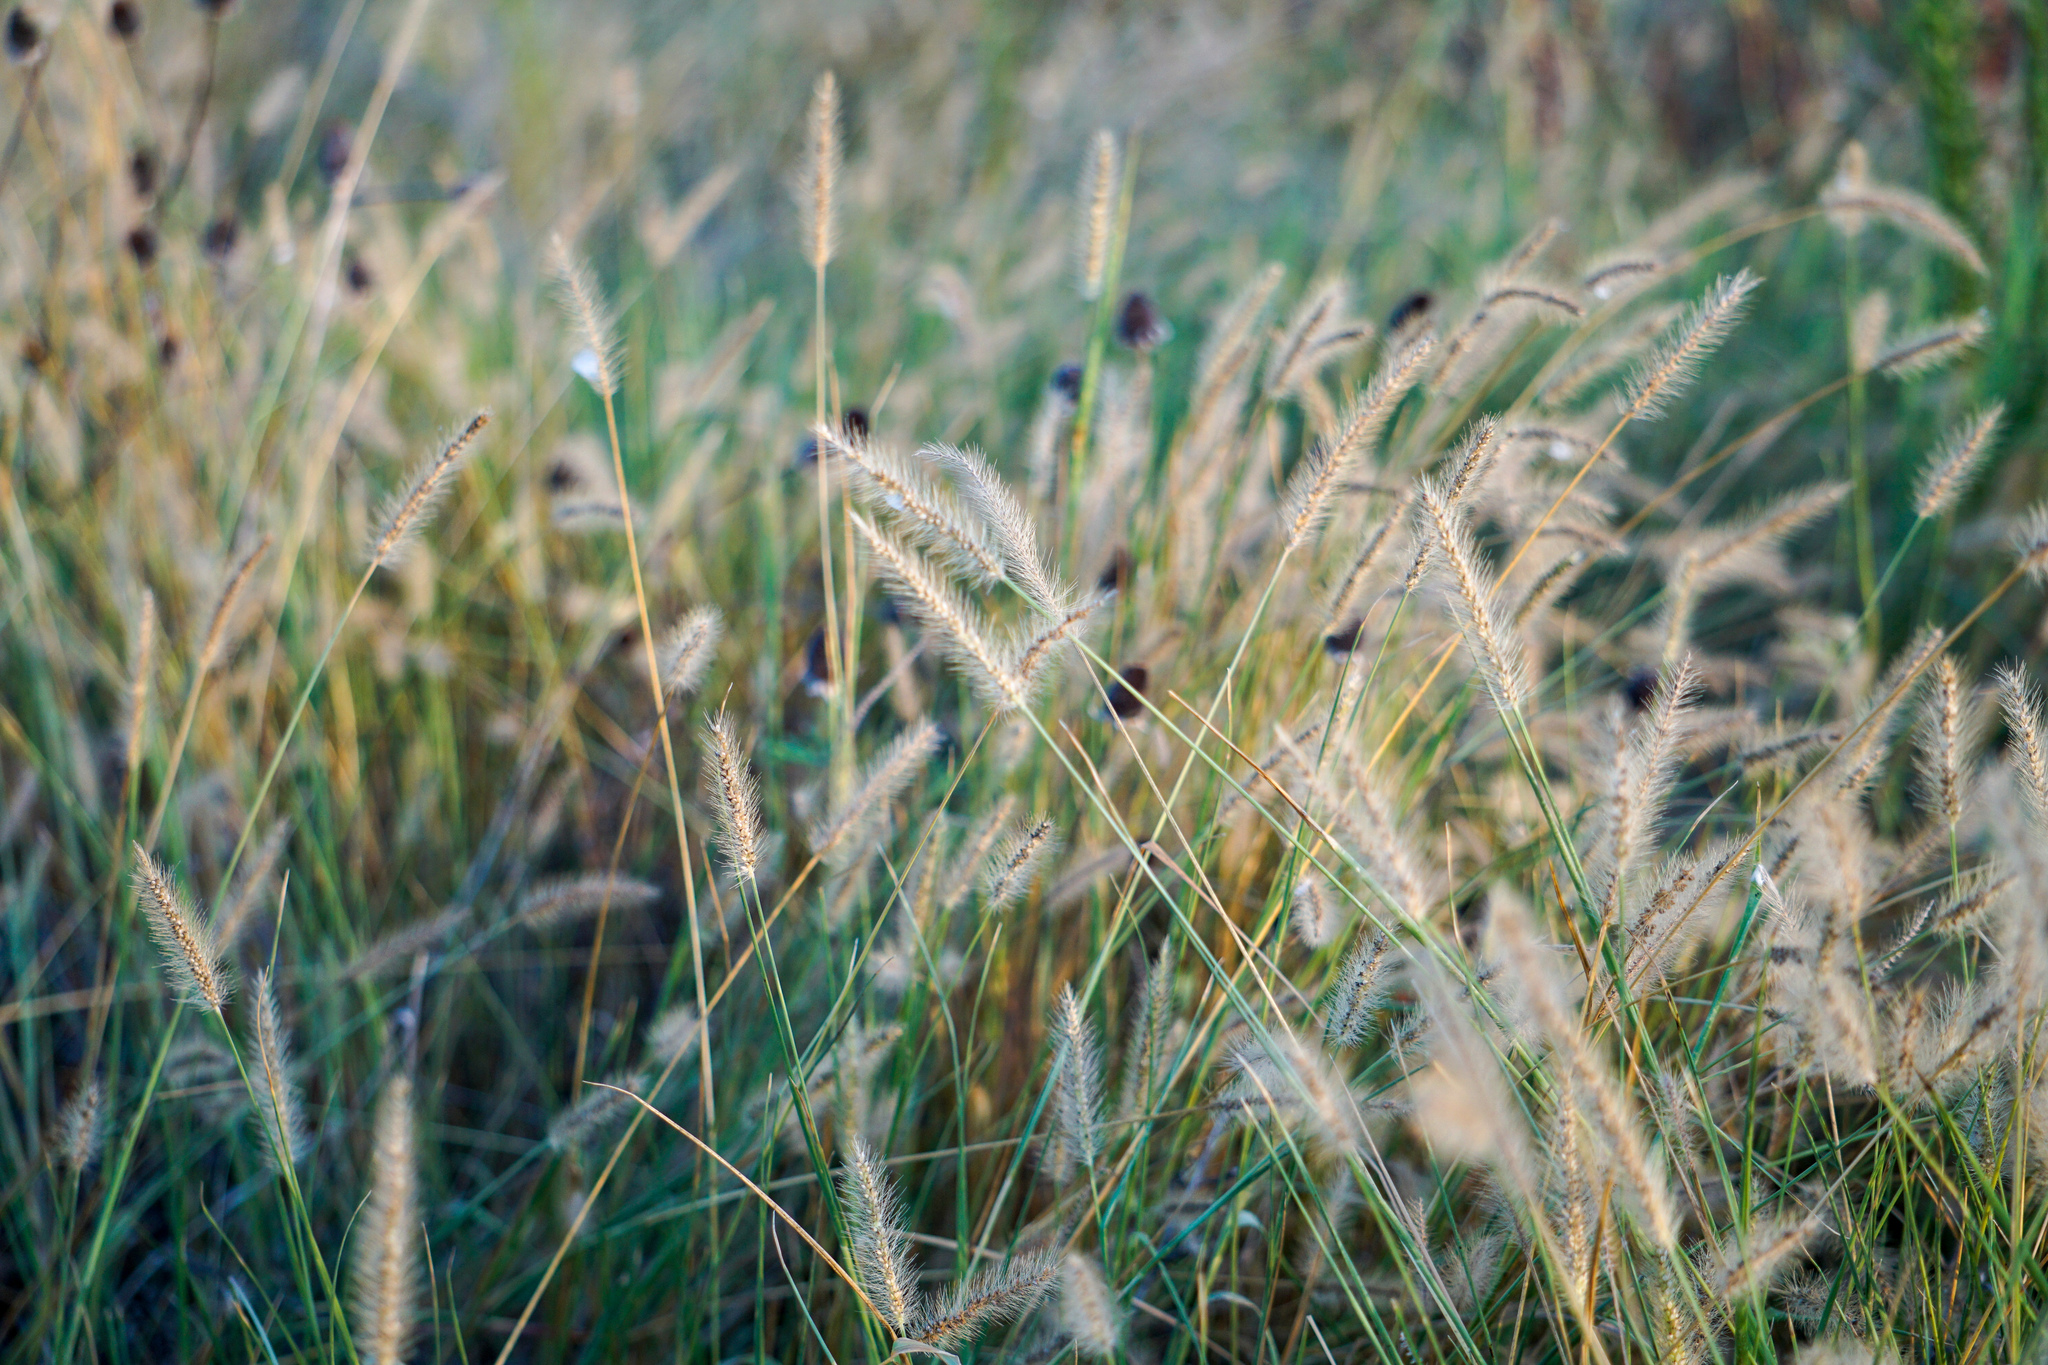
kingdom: Plantae
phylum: Tracheophyta
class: Liliopsida
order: Poales
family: Poaceae
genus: Setaria
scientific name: Setaria parviflora
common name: Knotroot bristle-grass
